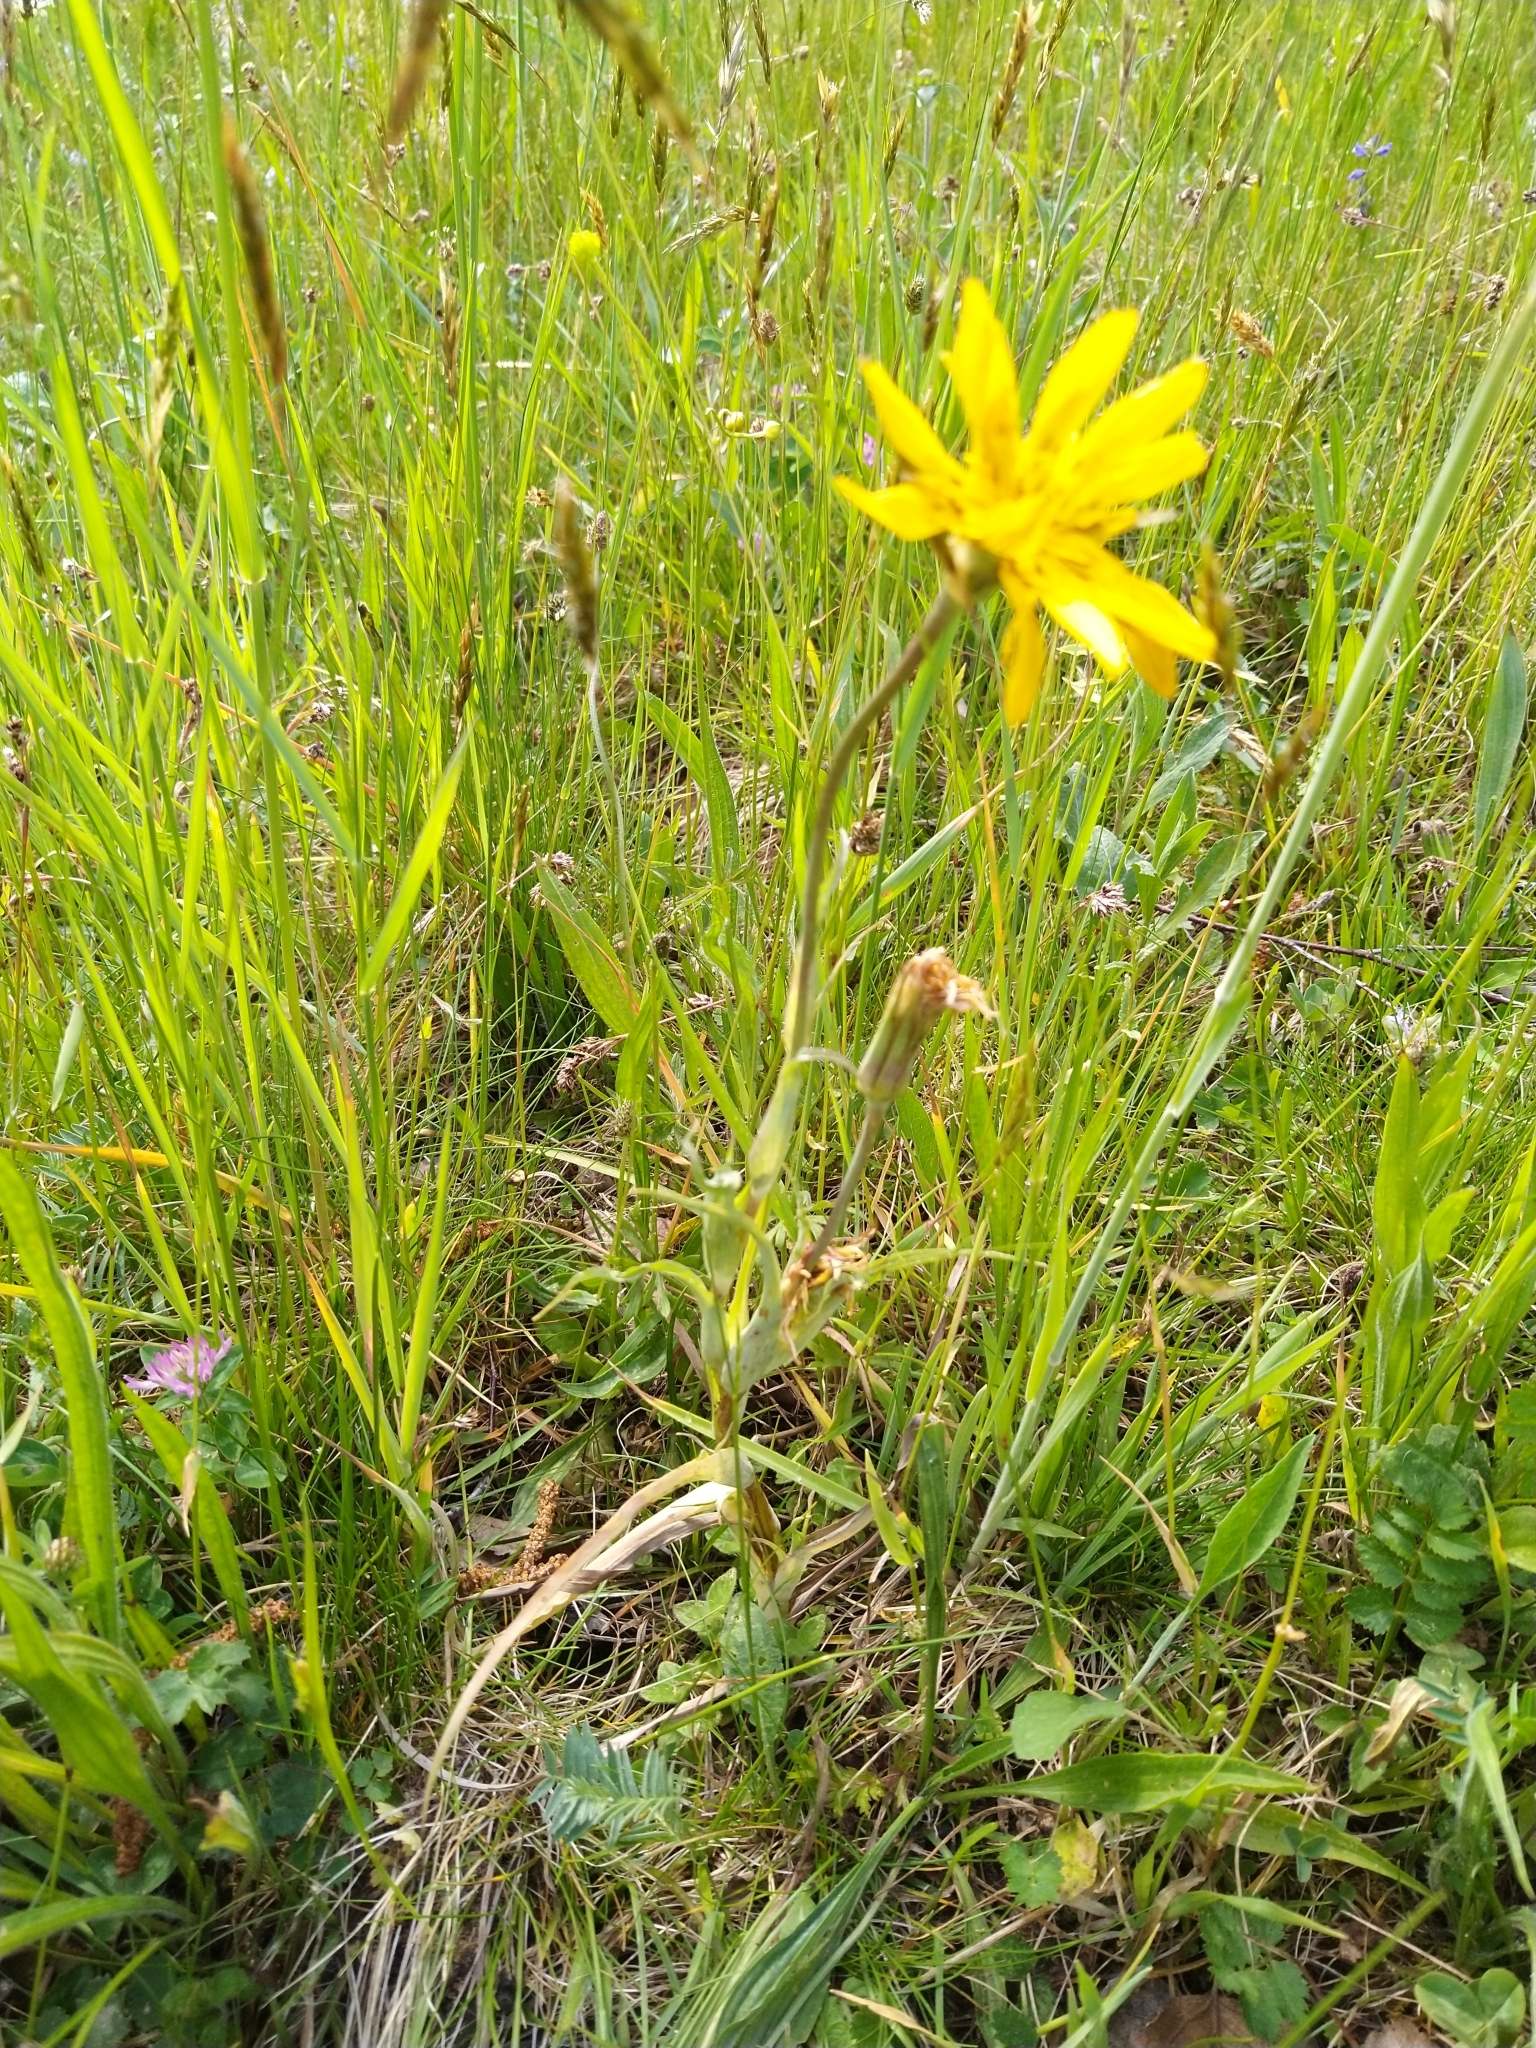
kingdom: Plantae
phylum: Tracheophyta
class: Magnoliopsida
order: Asterales
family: Asteraceae
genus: Tragopogon
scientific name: Tragopogon orientalis
